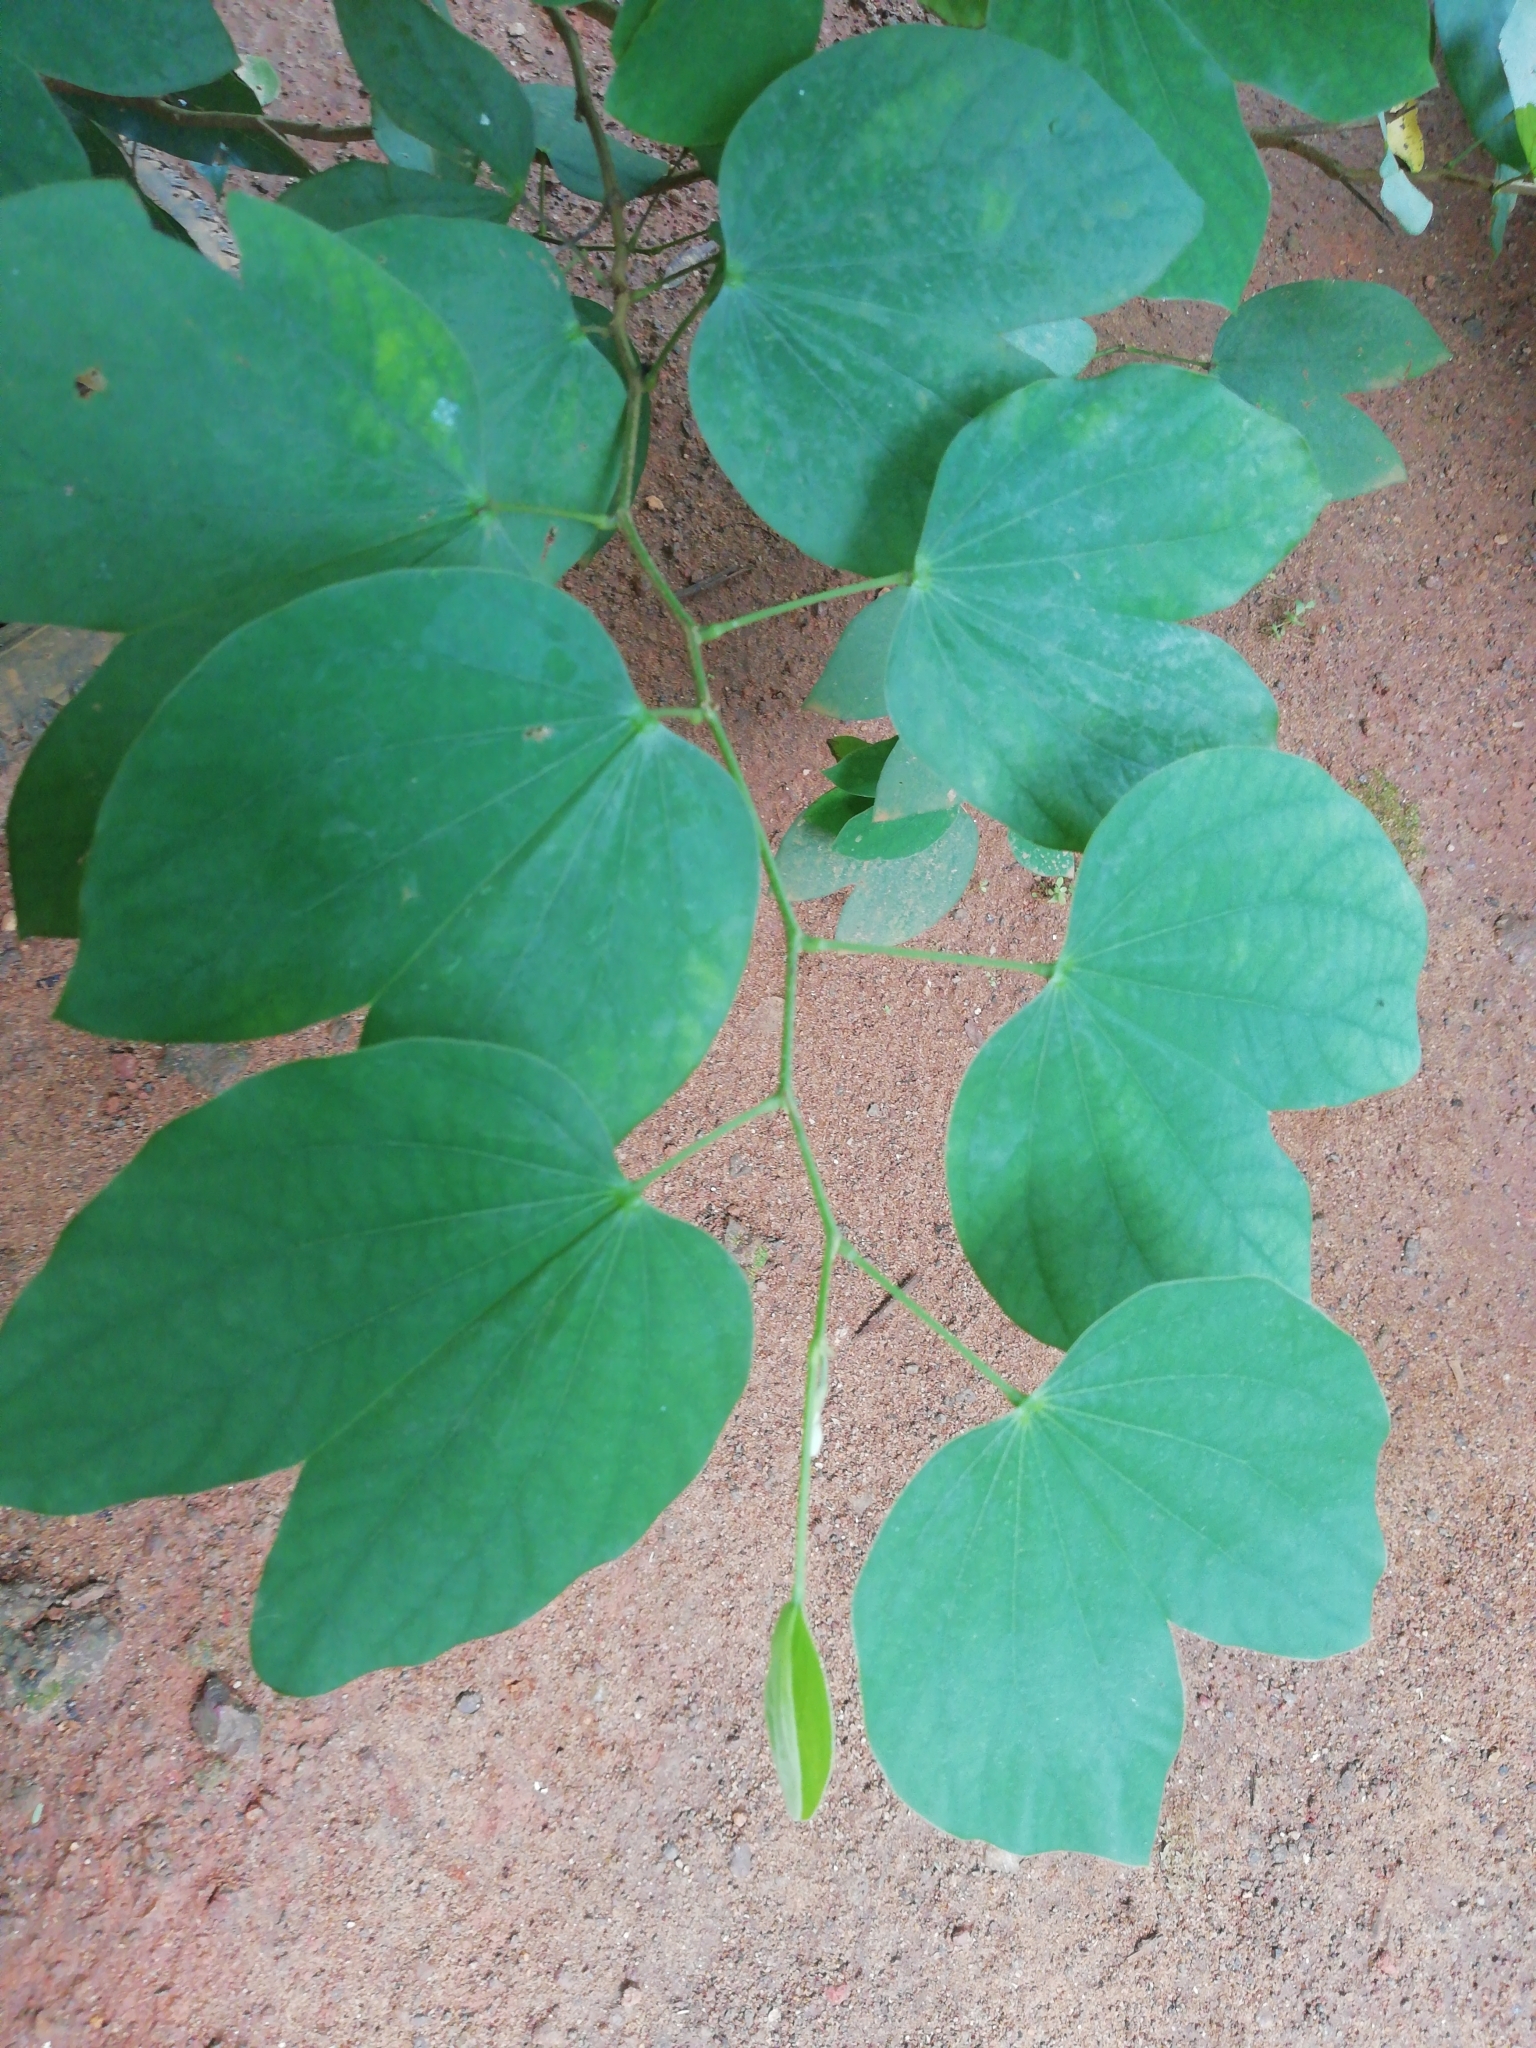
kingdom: Plantae
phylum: Tracheophyta
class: Magnoliopsida
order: Fabales
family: Fabaceae
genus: Bauhinia
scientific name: Bauhinia variegata
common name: Mountain ebony
